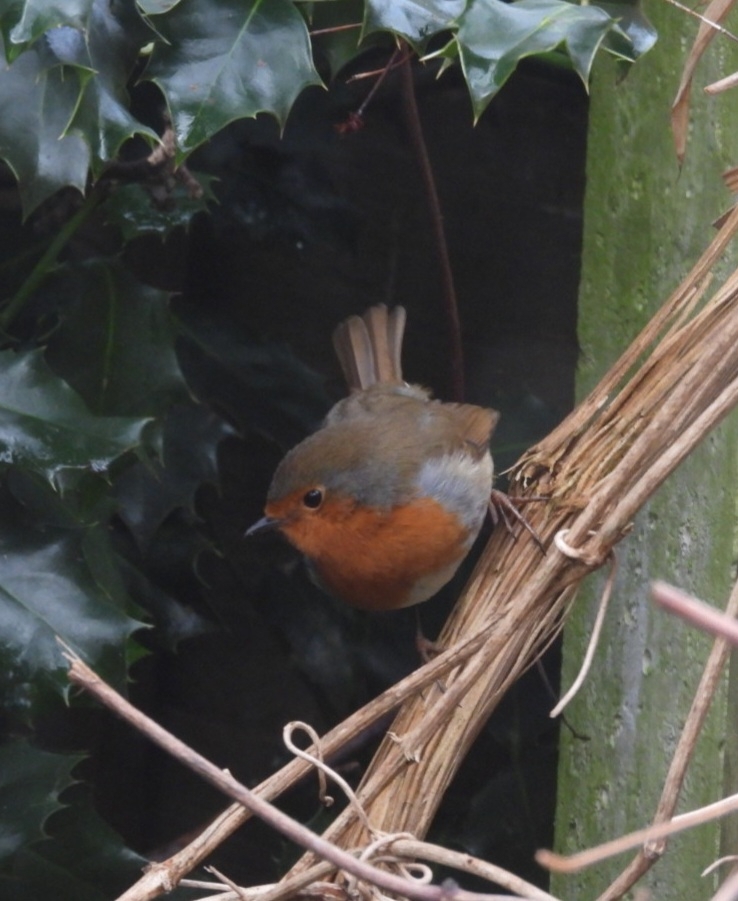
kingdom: Animalia
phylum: Chordata
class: Aves
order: Passeriformes
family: Muscicapidae
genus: Erithacus
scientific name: Erithacus rubecula
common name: European robin
